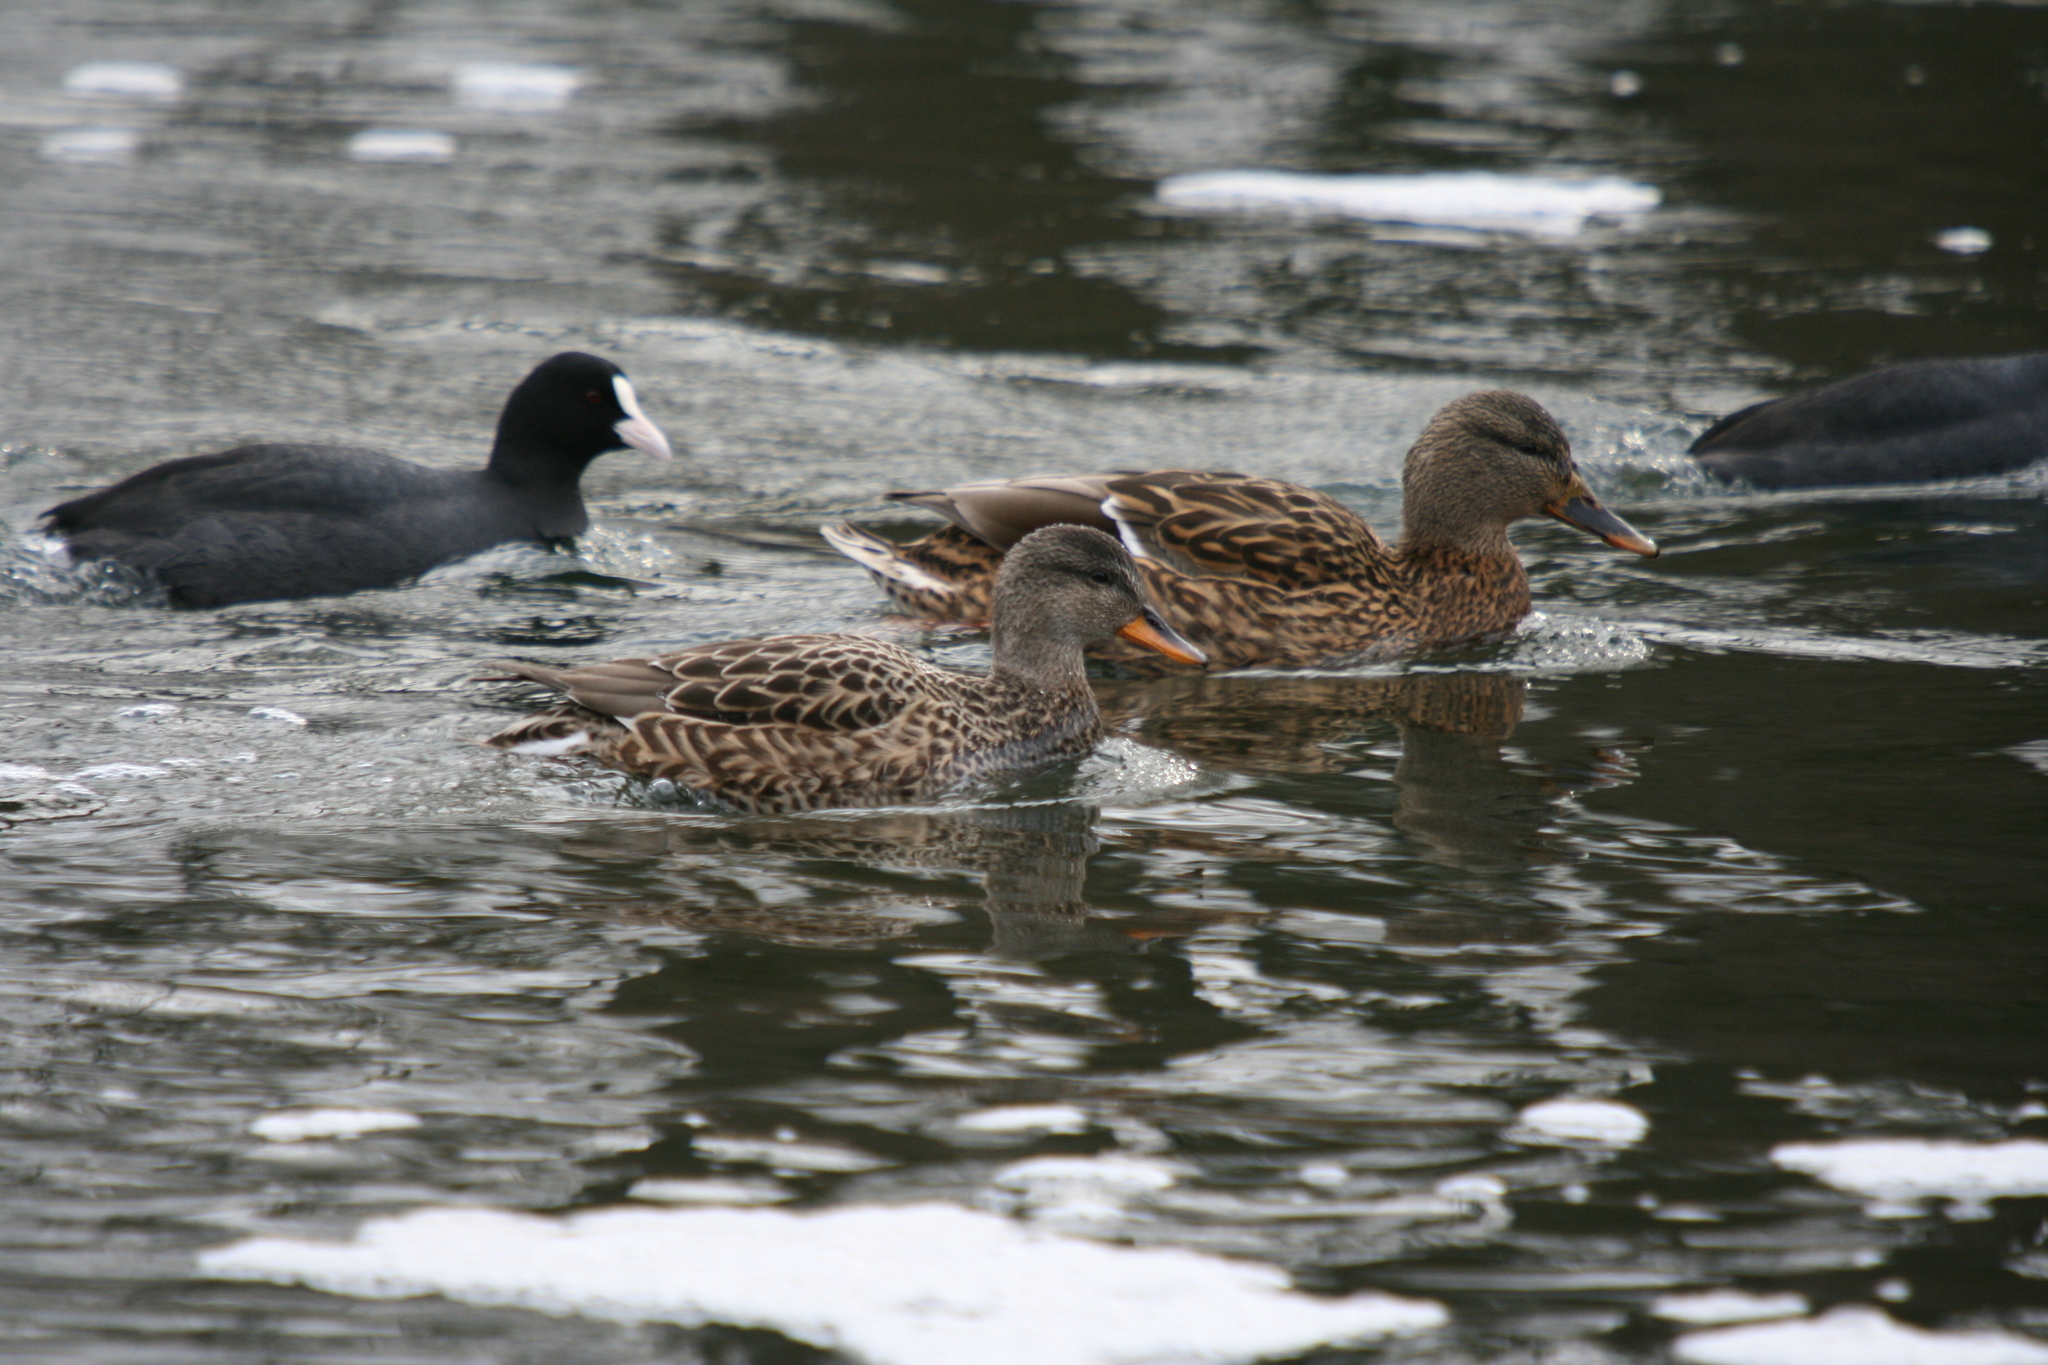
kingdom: Animalia
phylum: Chordata
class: Aves
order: Anseriformes
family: Anatidae
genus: Mareca
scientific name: Mareca strepera
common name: Gadwall
